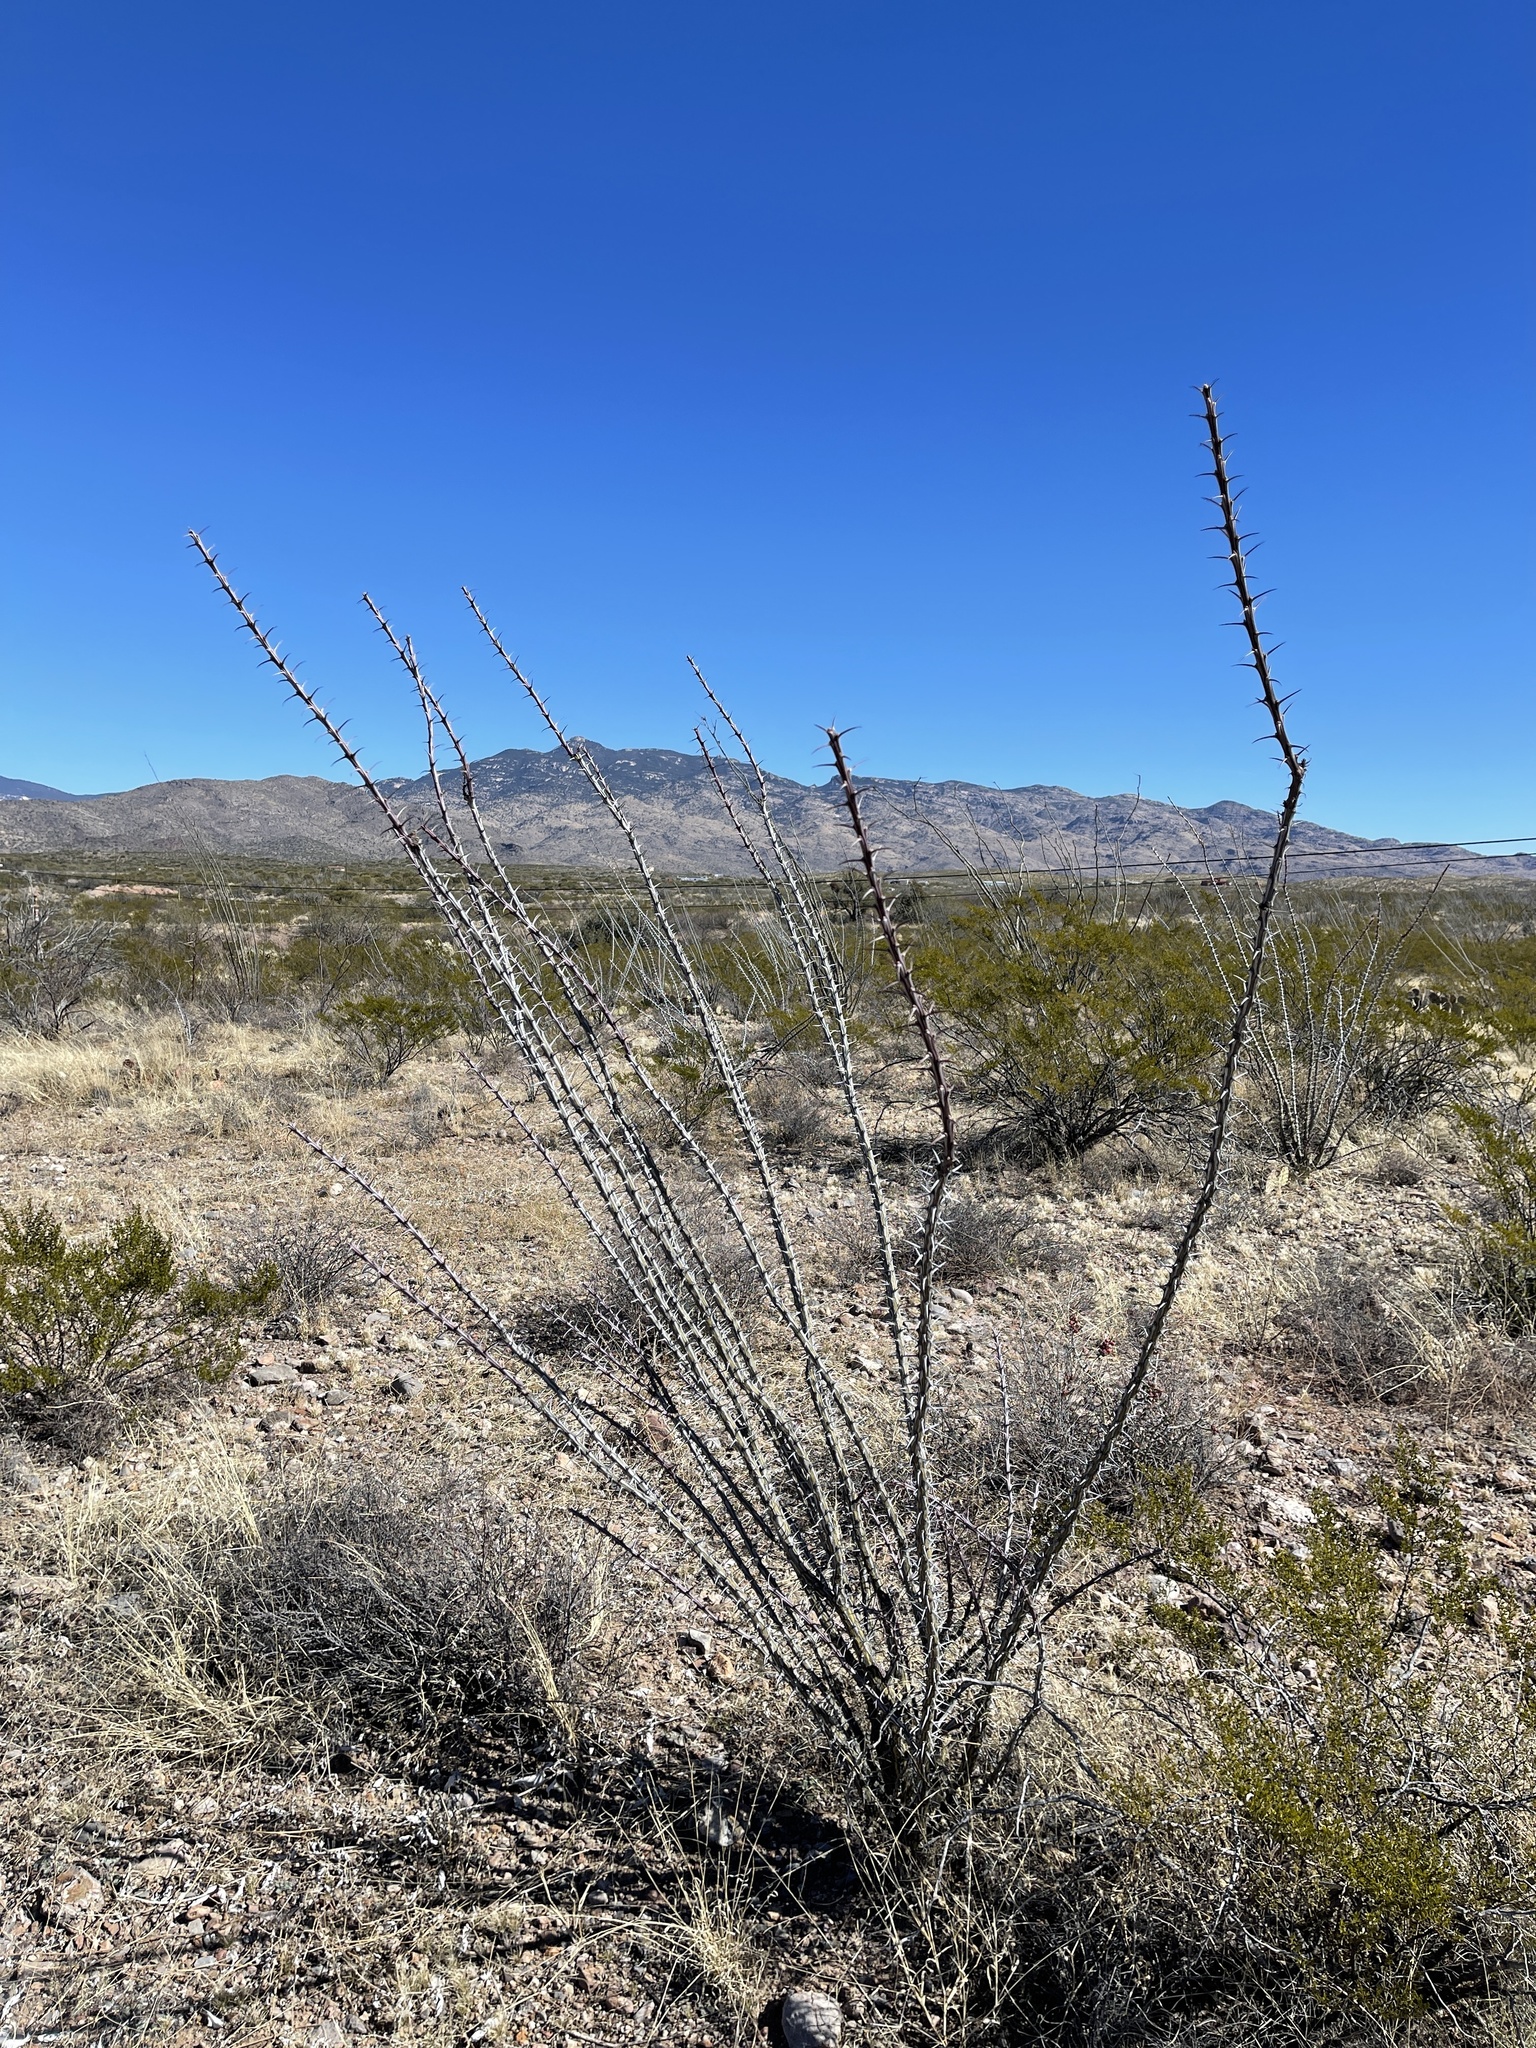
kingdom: Plantae
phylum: Tracheophyta
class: Magnoliopsida
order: Ericales
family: Fouquieriaceae
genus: Fouquieria
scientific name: Fouquieria splendens
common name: Vine-cactus
